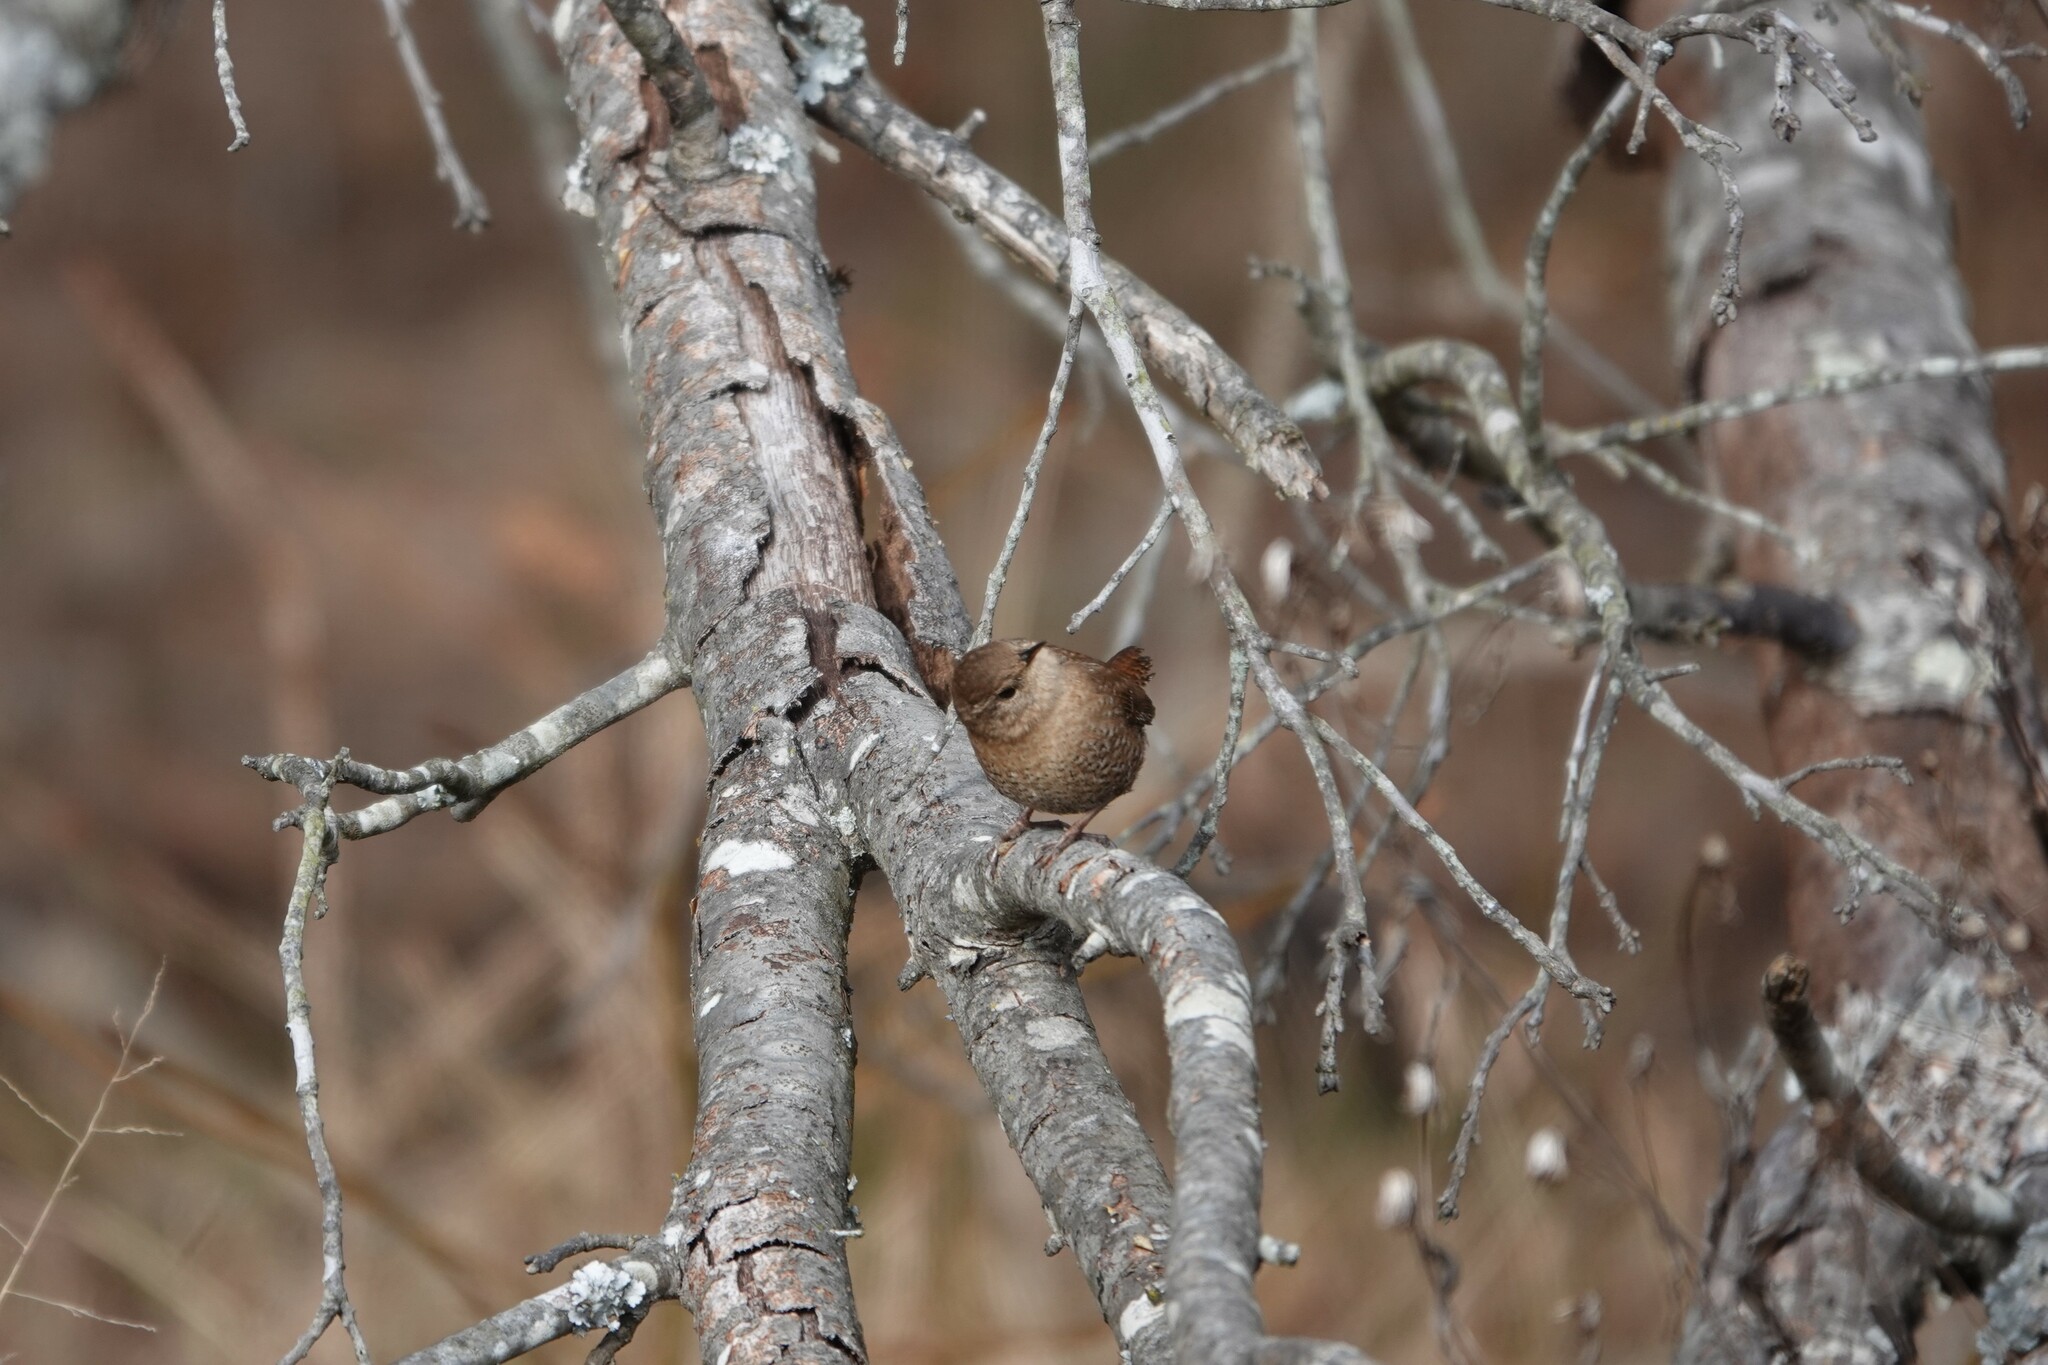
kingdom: Animalia
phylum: Chordata
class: Aves
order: Passeriformes
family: Troglodytidae
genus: Troglodytes
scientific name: Troglodytes hiemalis
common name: Winter wren
